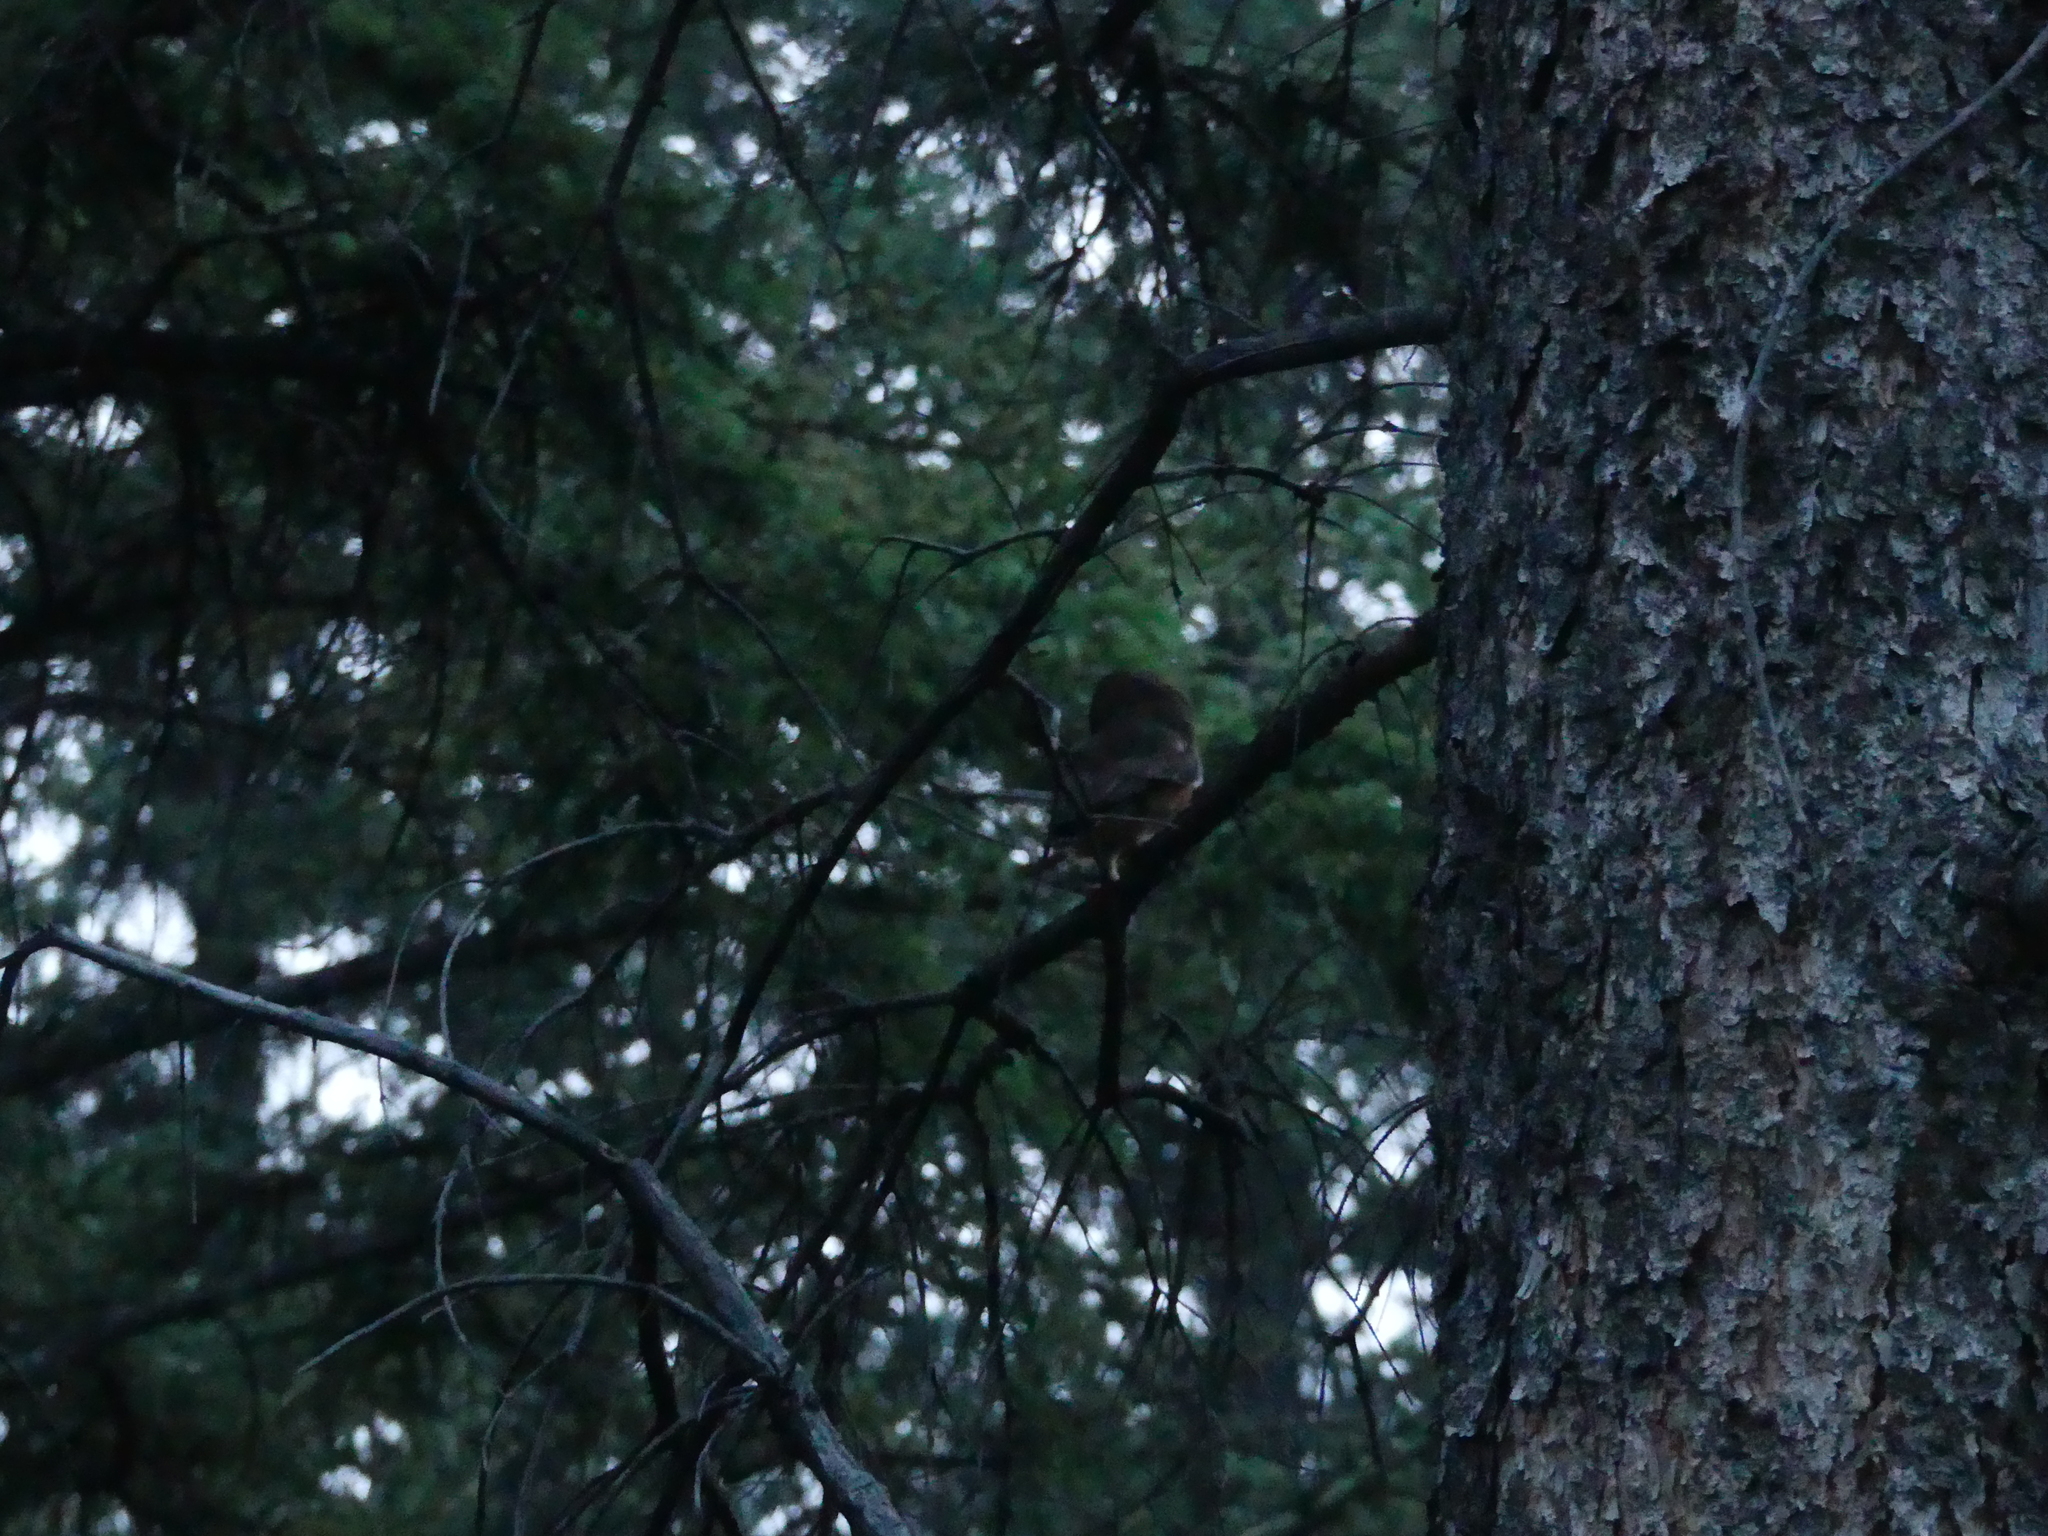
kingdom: Animalia
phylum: Chordata
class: Aves
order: Strigiformes
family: Strigidae
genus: Aegolius
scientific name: Aegolius acadicus
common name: Northern saw-whet owl
